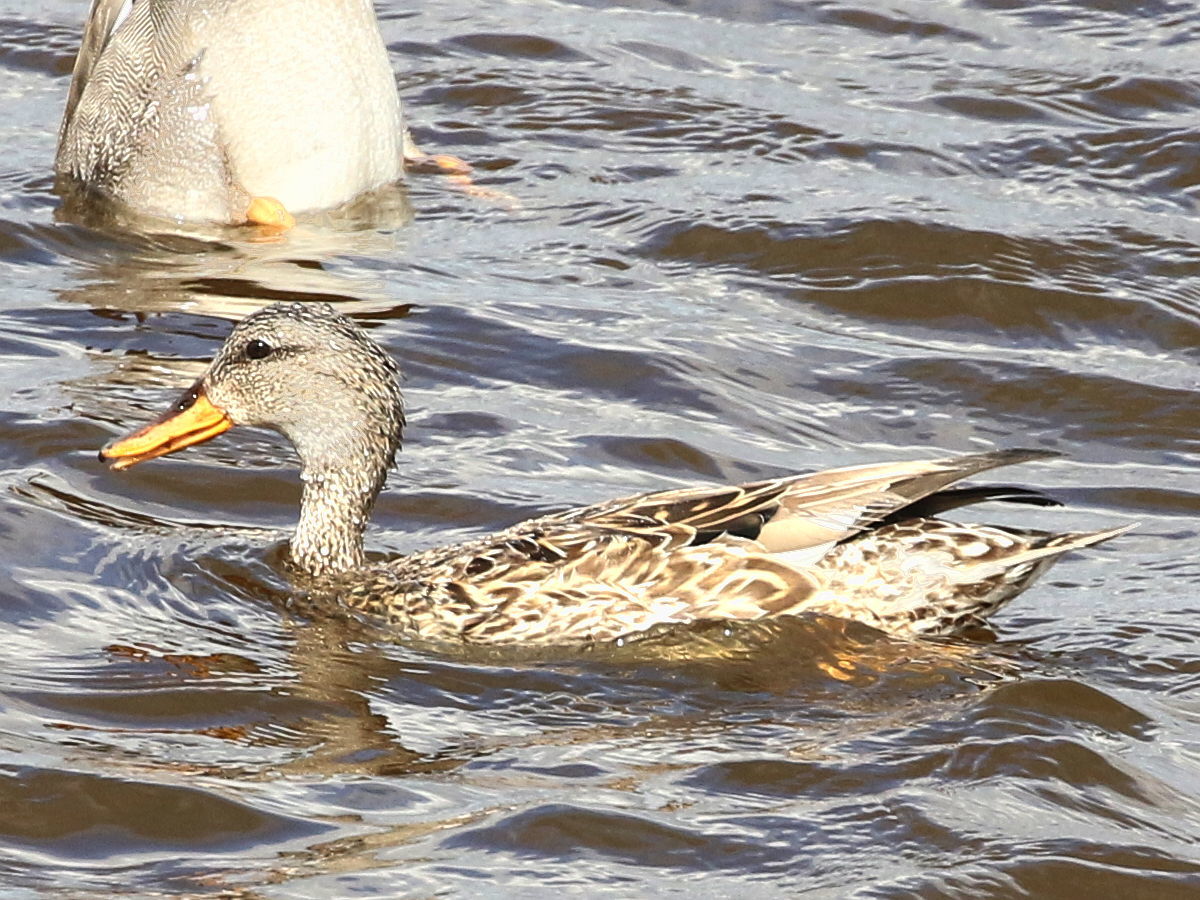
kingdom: Animalia
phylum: Chordata
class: Aves
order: Anseriformes
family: Anatidae
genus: Mareca
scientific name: Mareca strepera
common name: Gadwall
